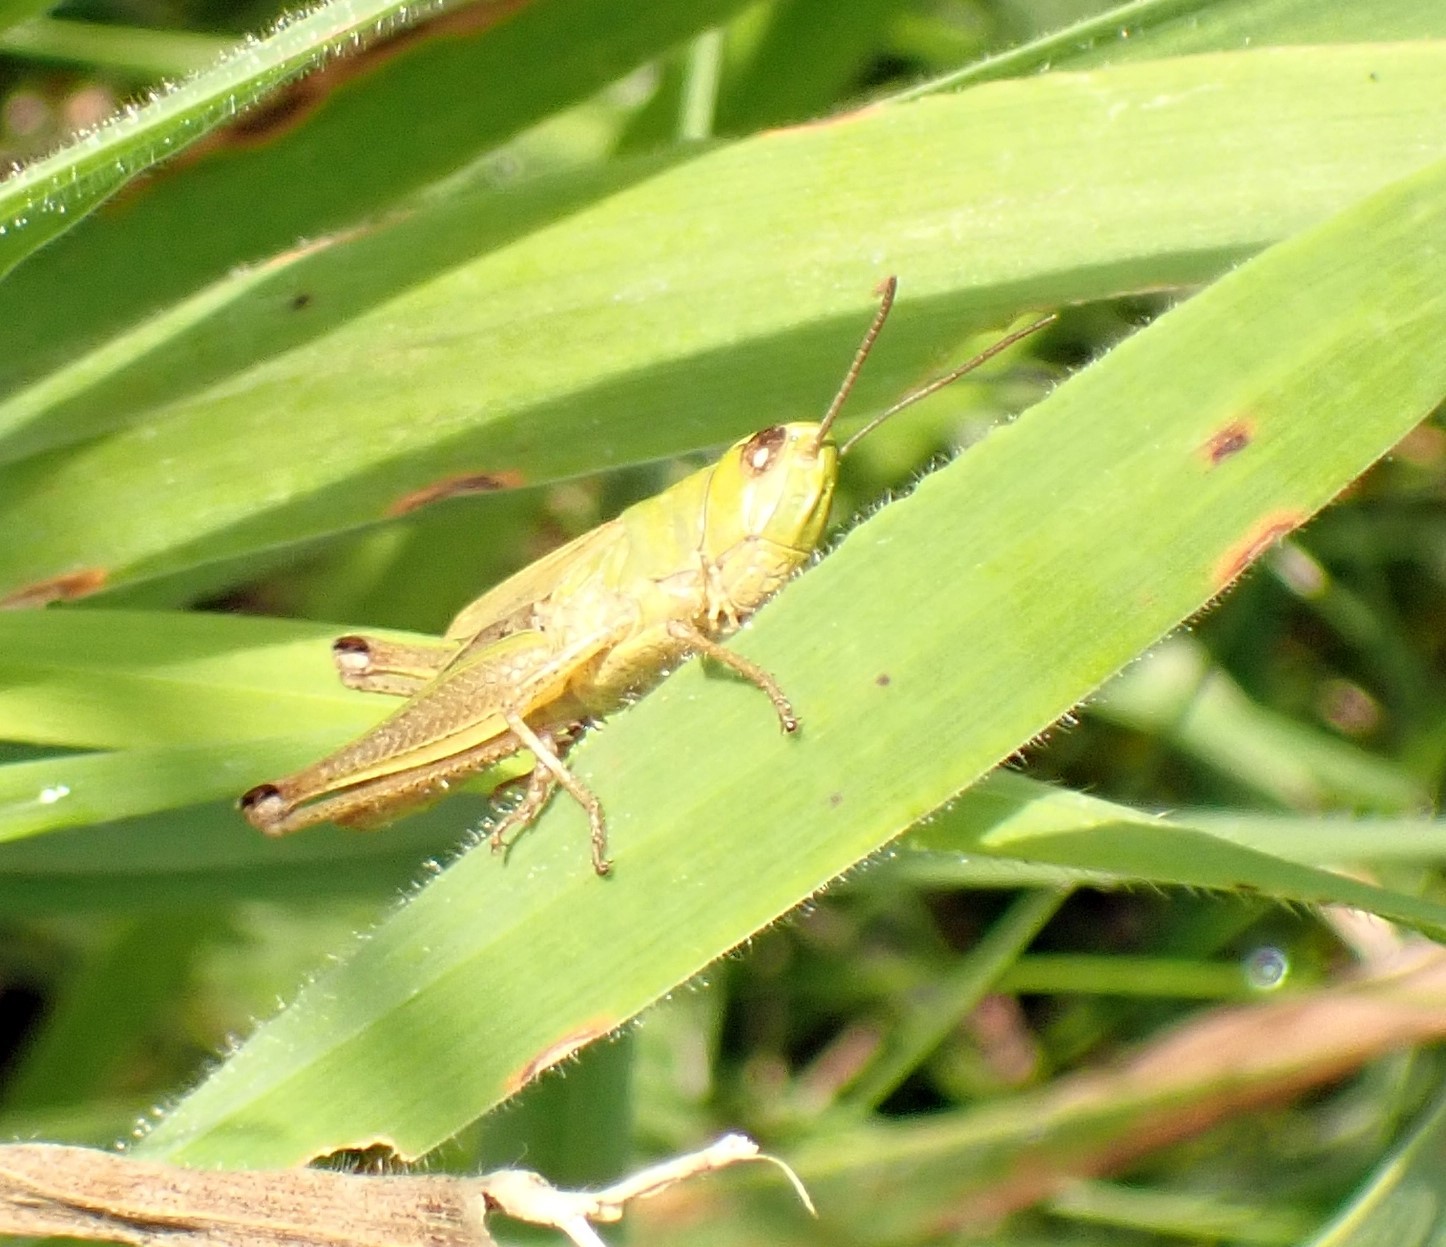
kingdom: Animalia
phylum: Arthropoda
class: Insecta
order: Orthoptera
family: Acrididae
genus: Pseudochorthippus
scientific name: Pseudochorthippus parallelus
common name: Meadow grasshopper
